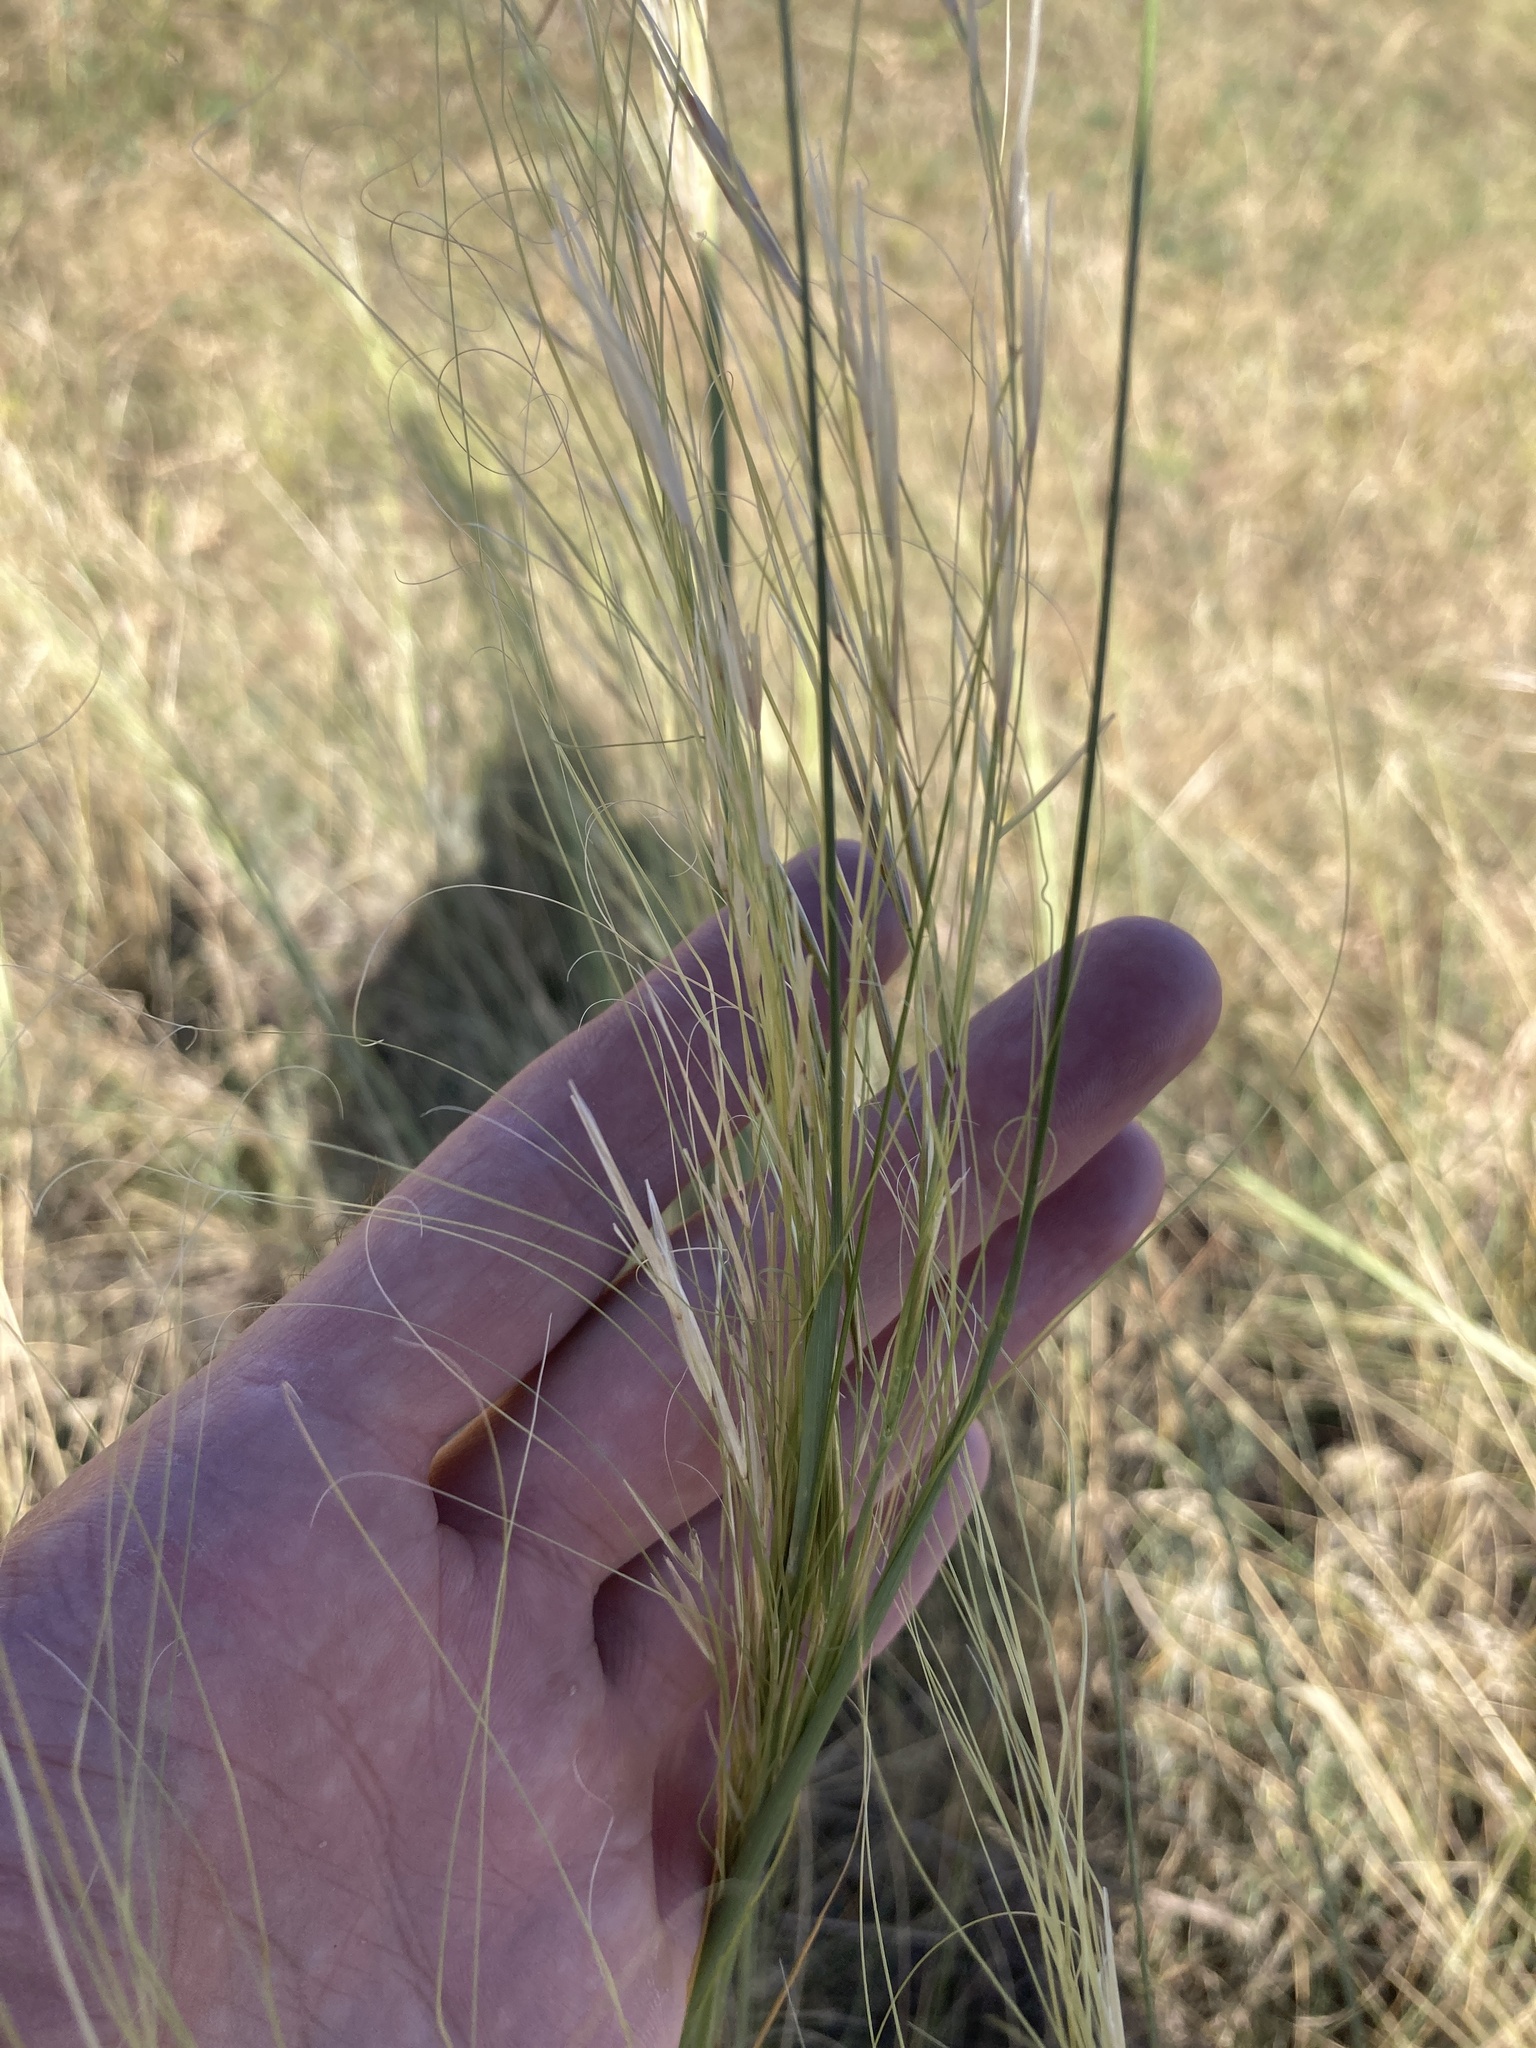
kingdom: Plantae
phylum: Tracheophyta
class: Liliopsida
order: Poales
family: Poaceae
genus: Stipa
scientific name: Stipa capillata
